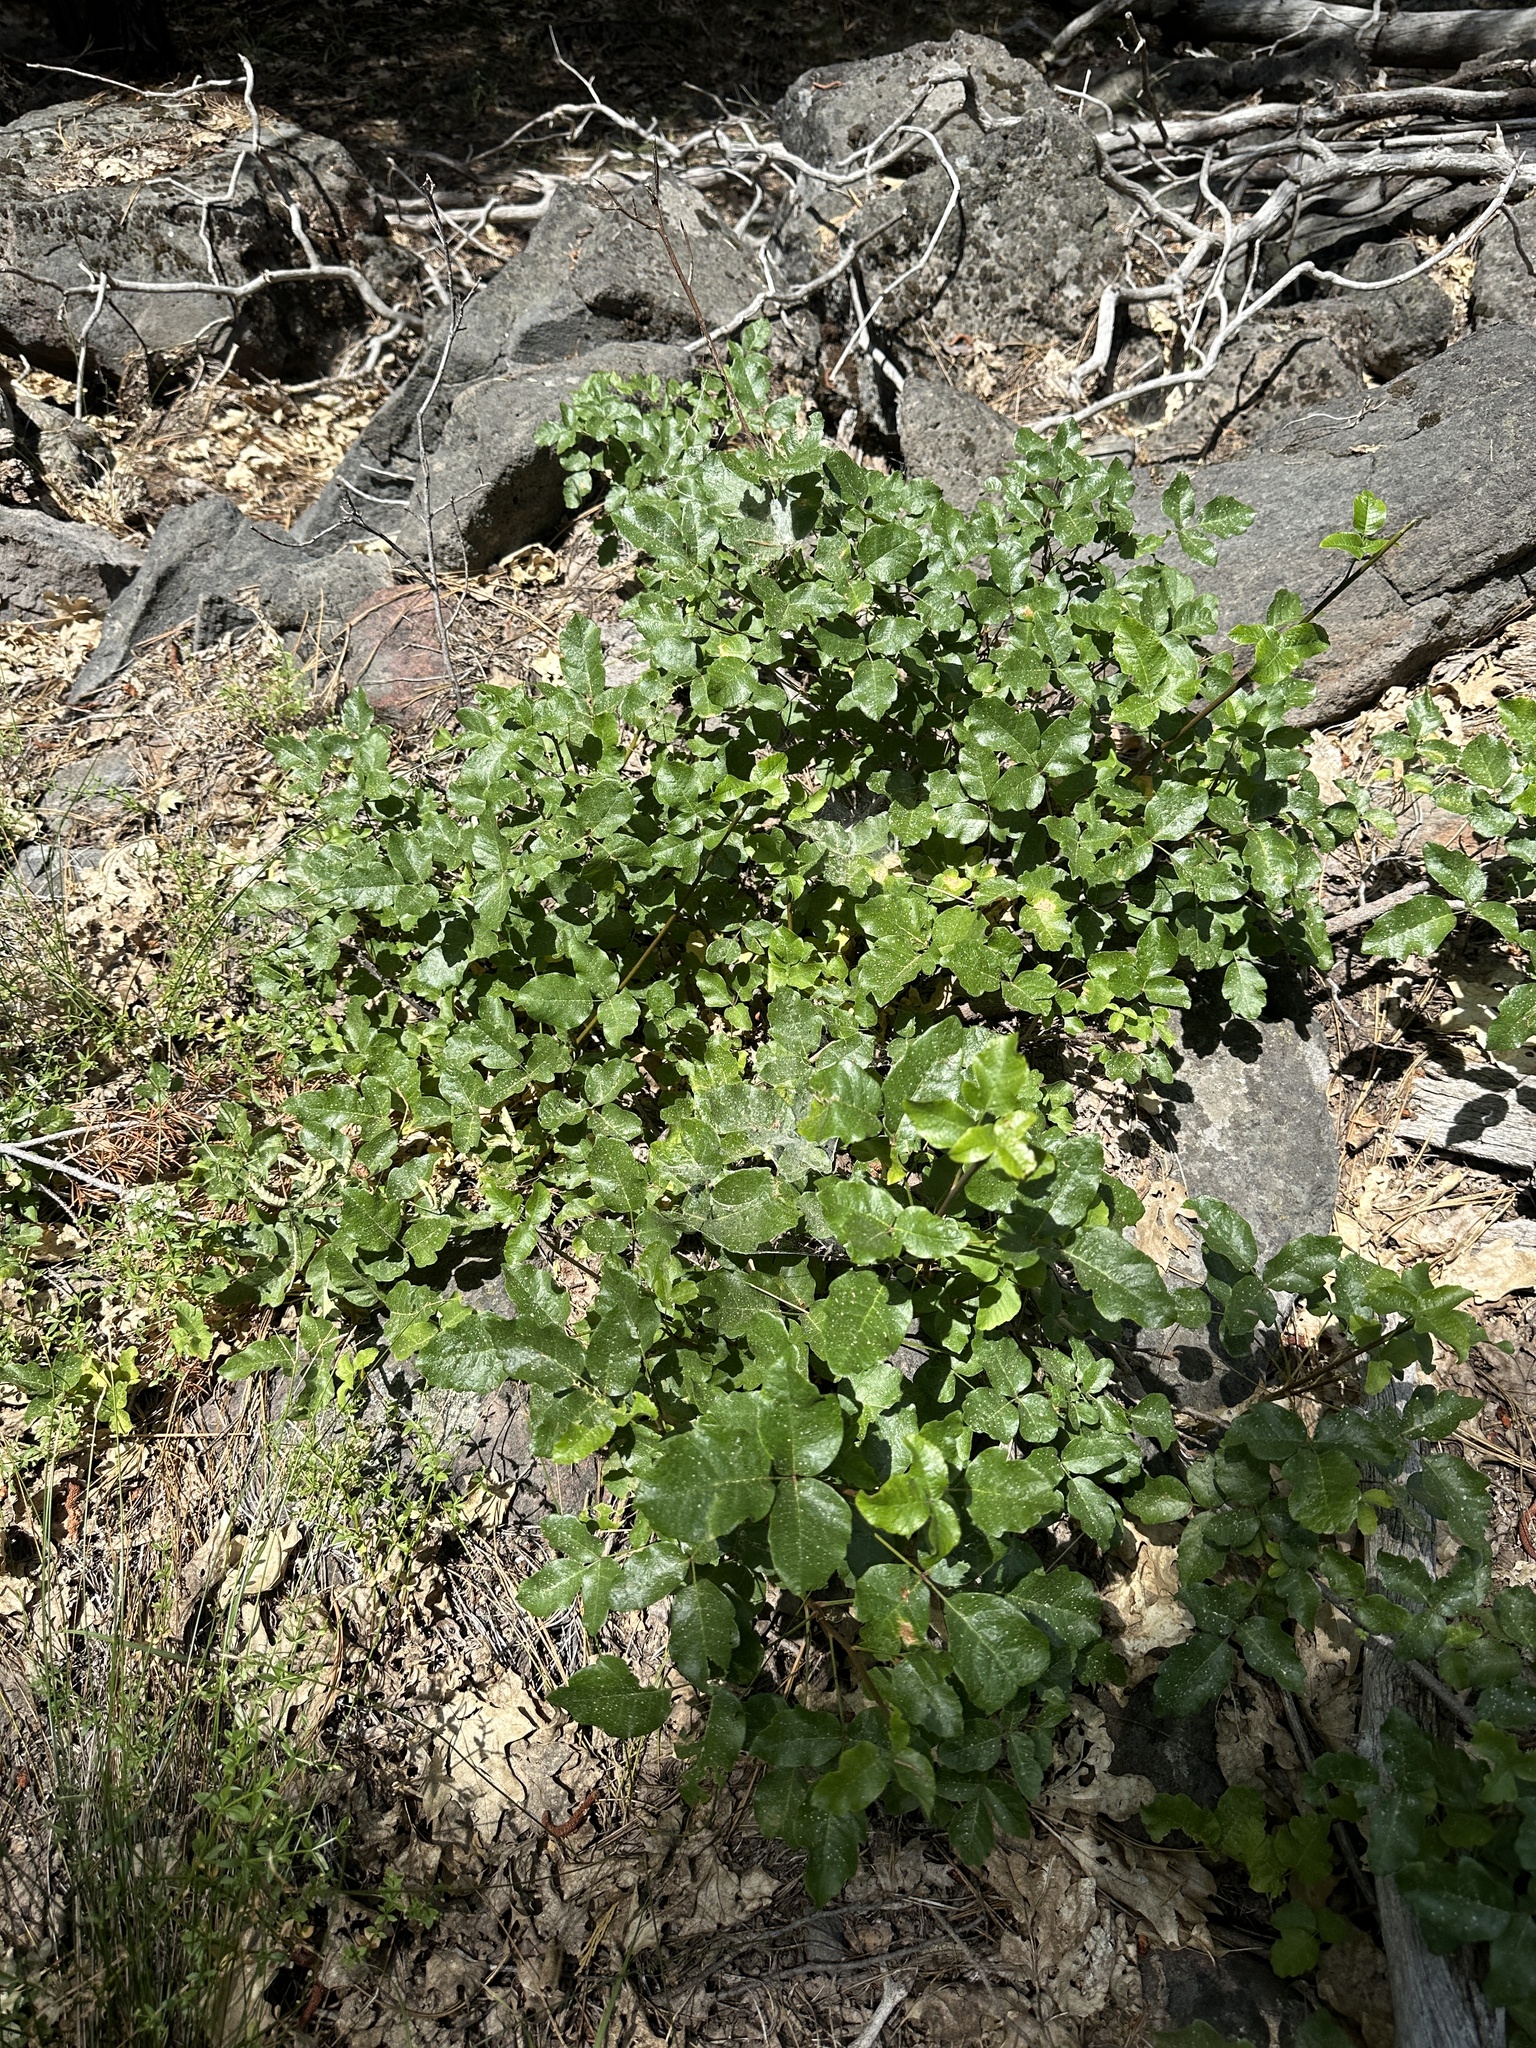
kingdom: Plantae
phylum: Tracheophyta
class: Magnoliopsida
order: Sapindales
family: Anacardiaceae
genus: Toxicodendron
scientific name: Toxicodendron diversilobum
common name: Pacific poison-oak
